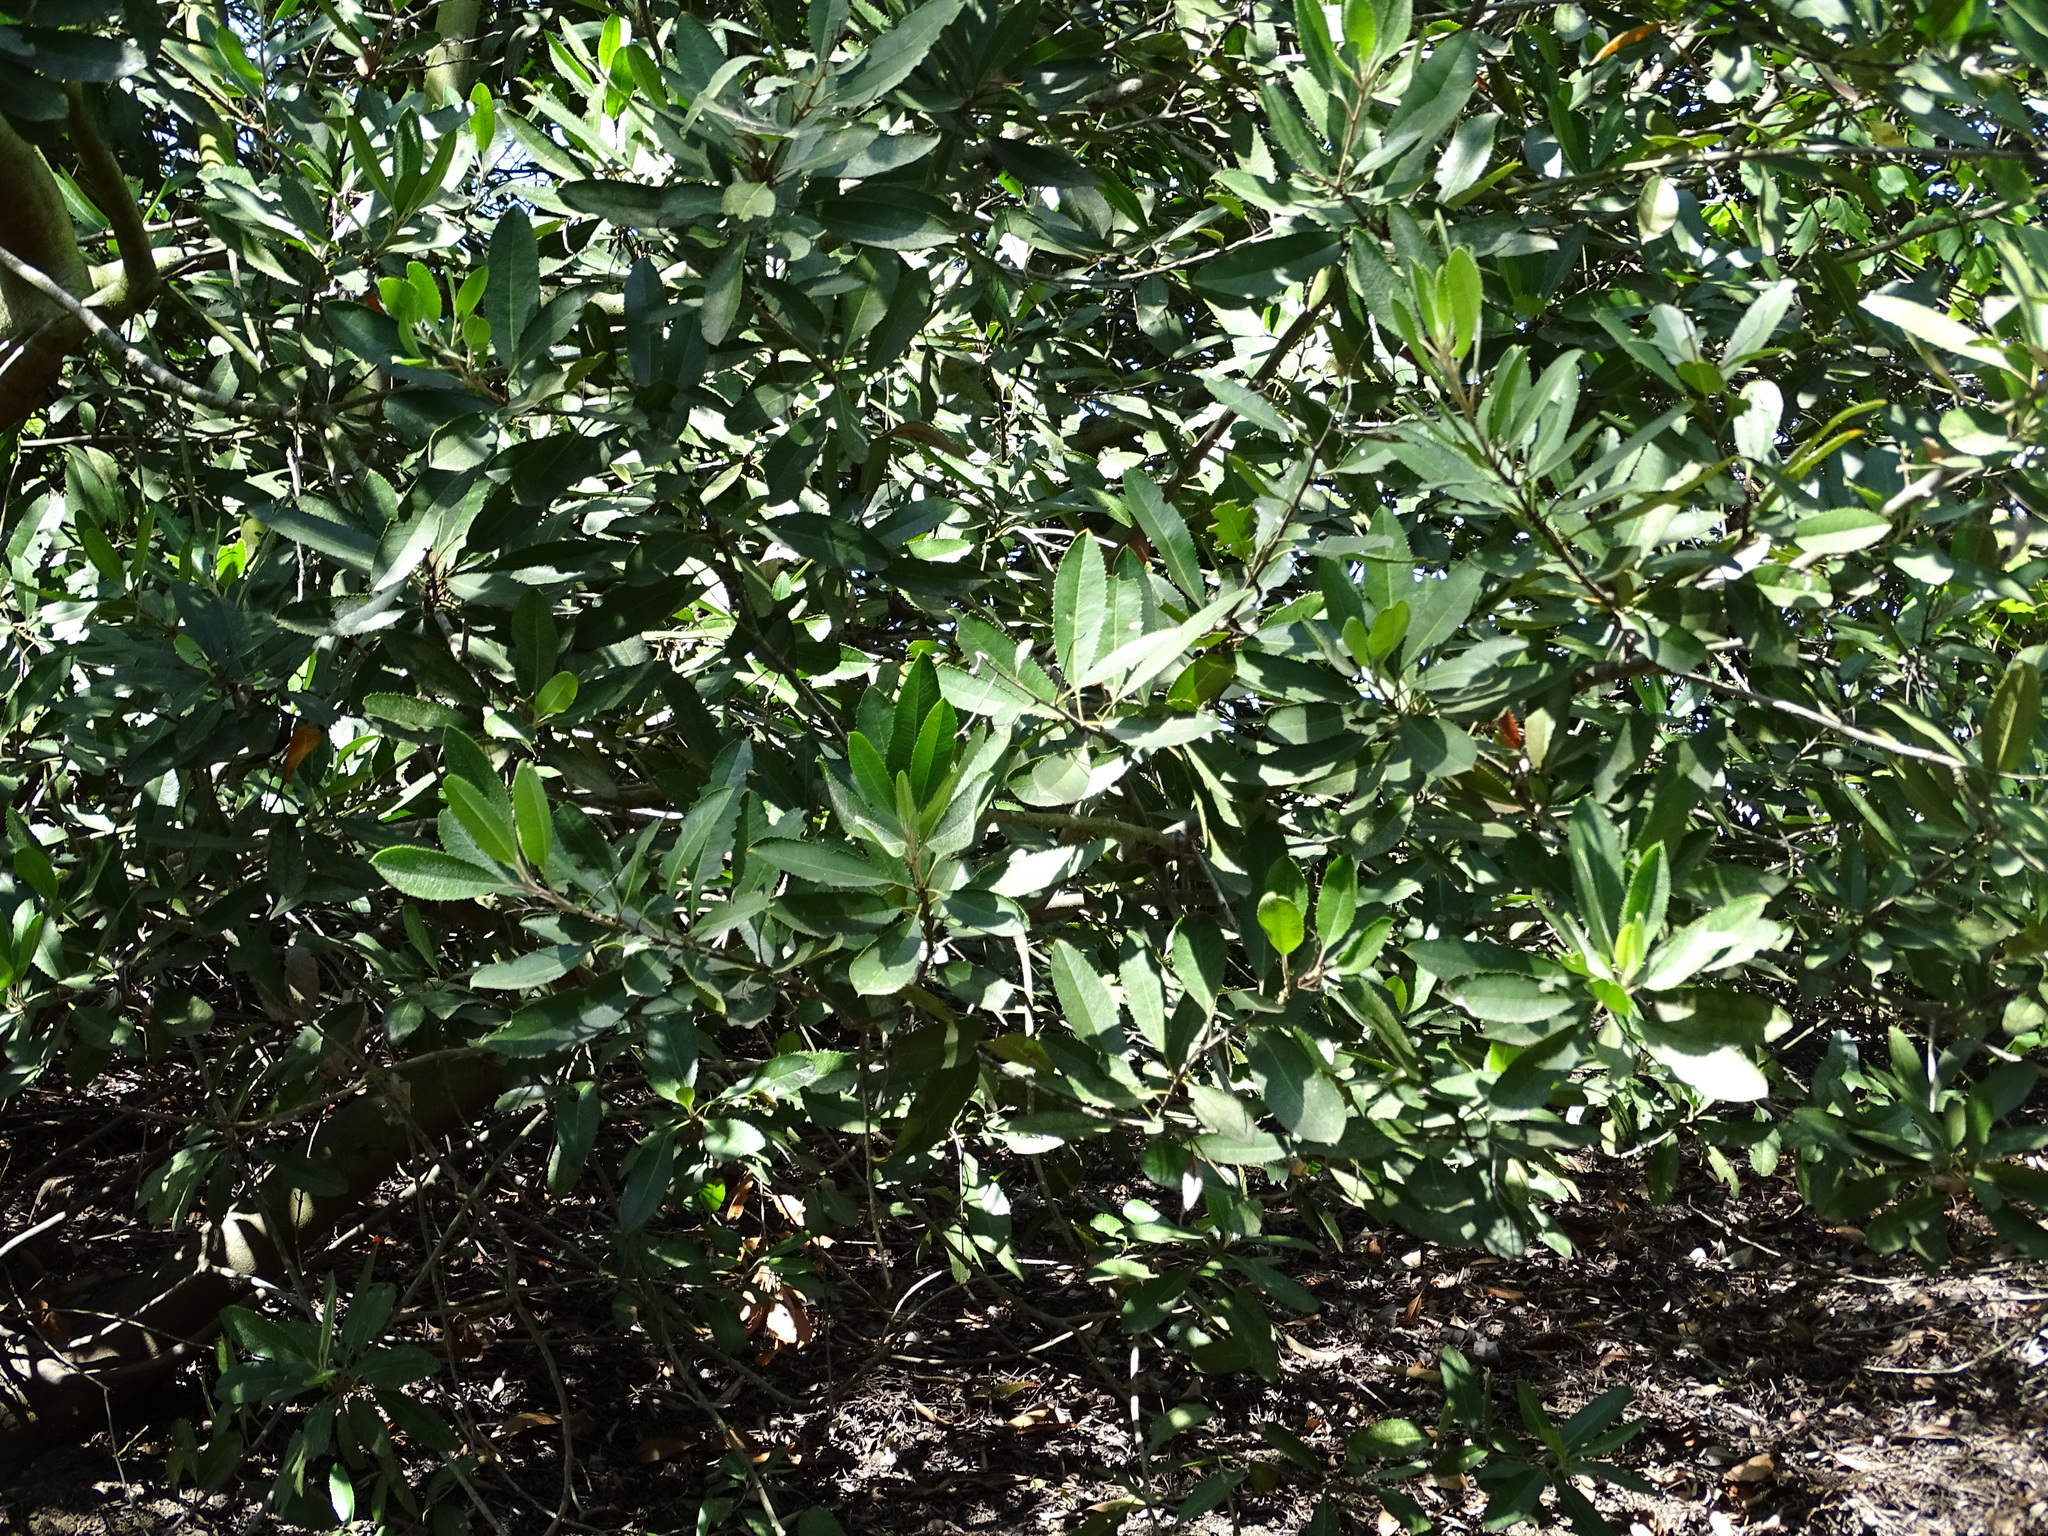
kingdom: Plantae
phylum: Tracheophyta
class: Magnoliopsida
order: Rosales
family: Rosaceae
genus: Heteromeles
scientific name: Heteromeles arbutifolia
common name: California-holly
